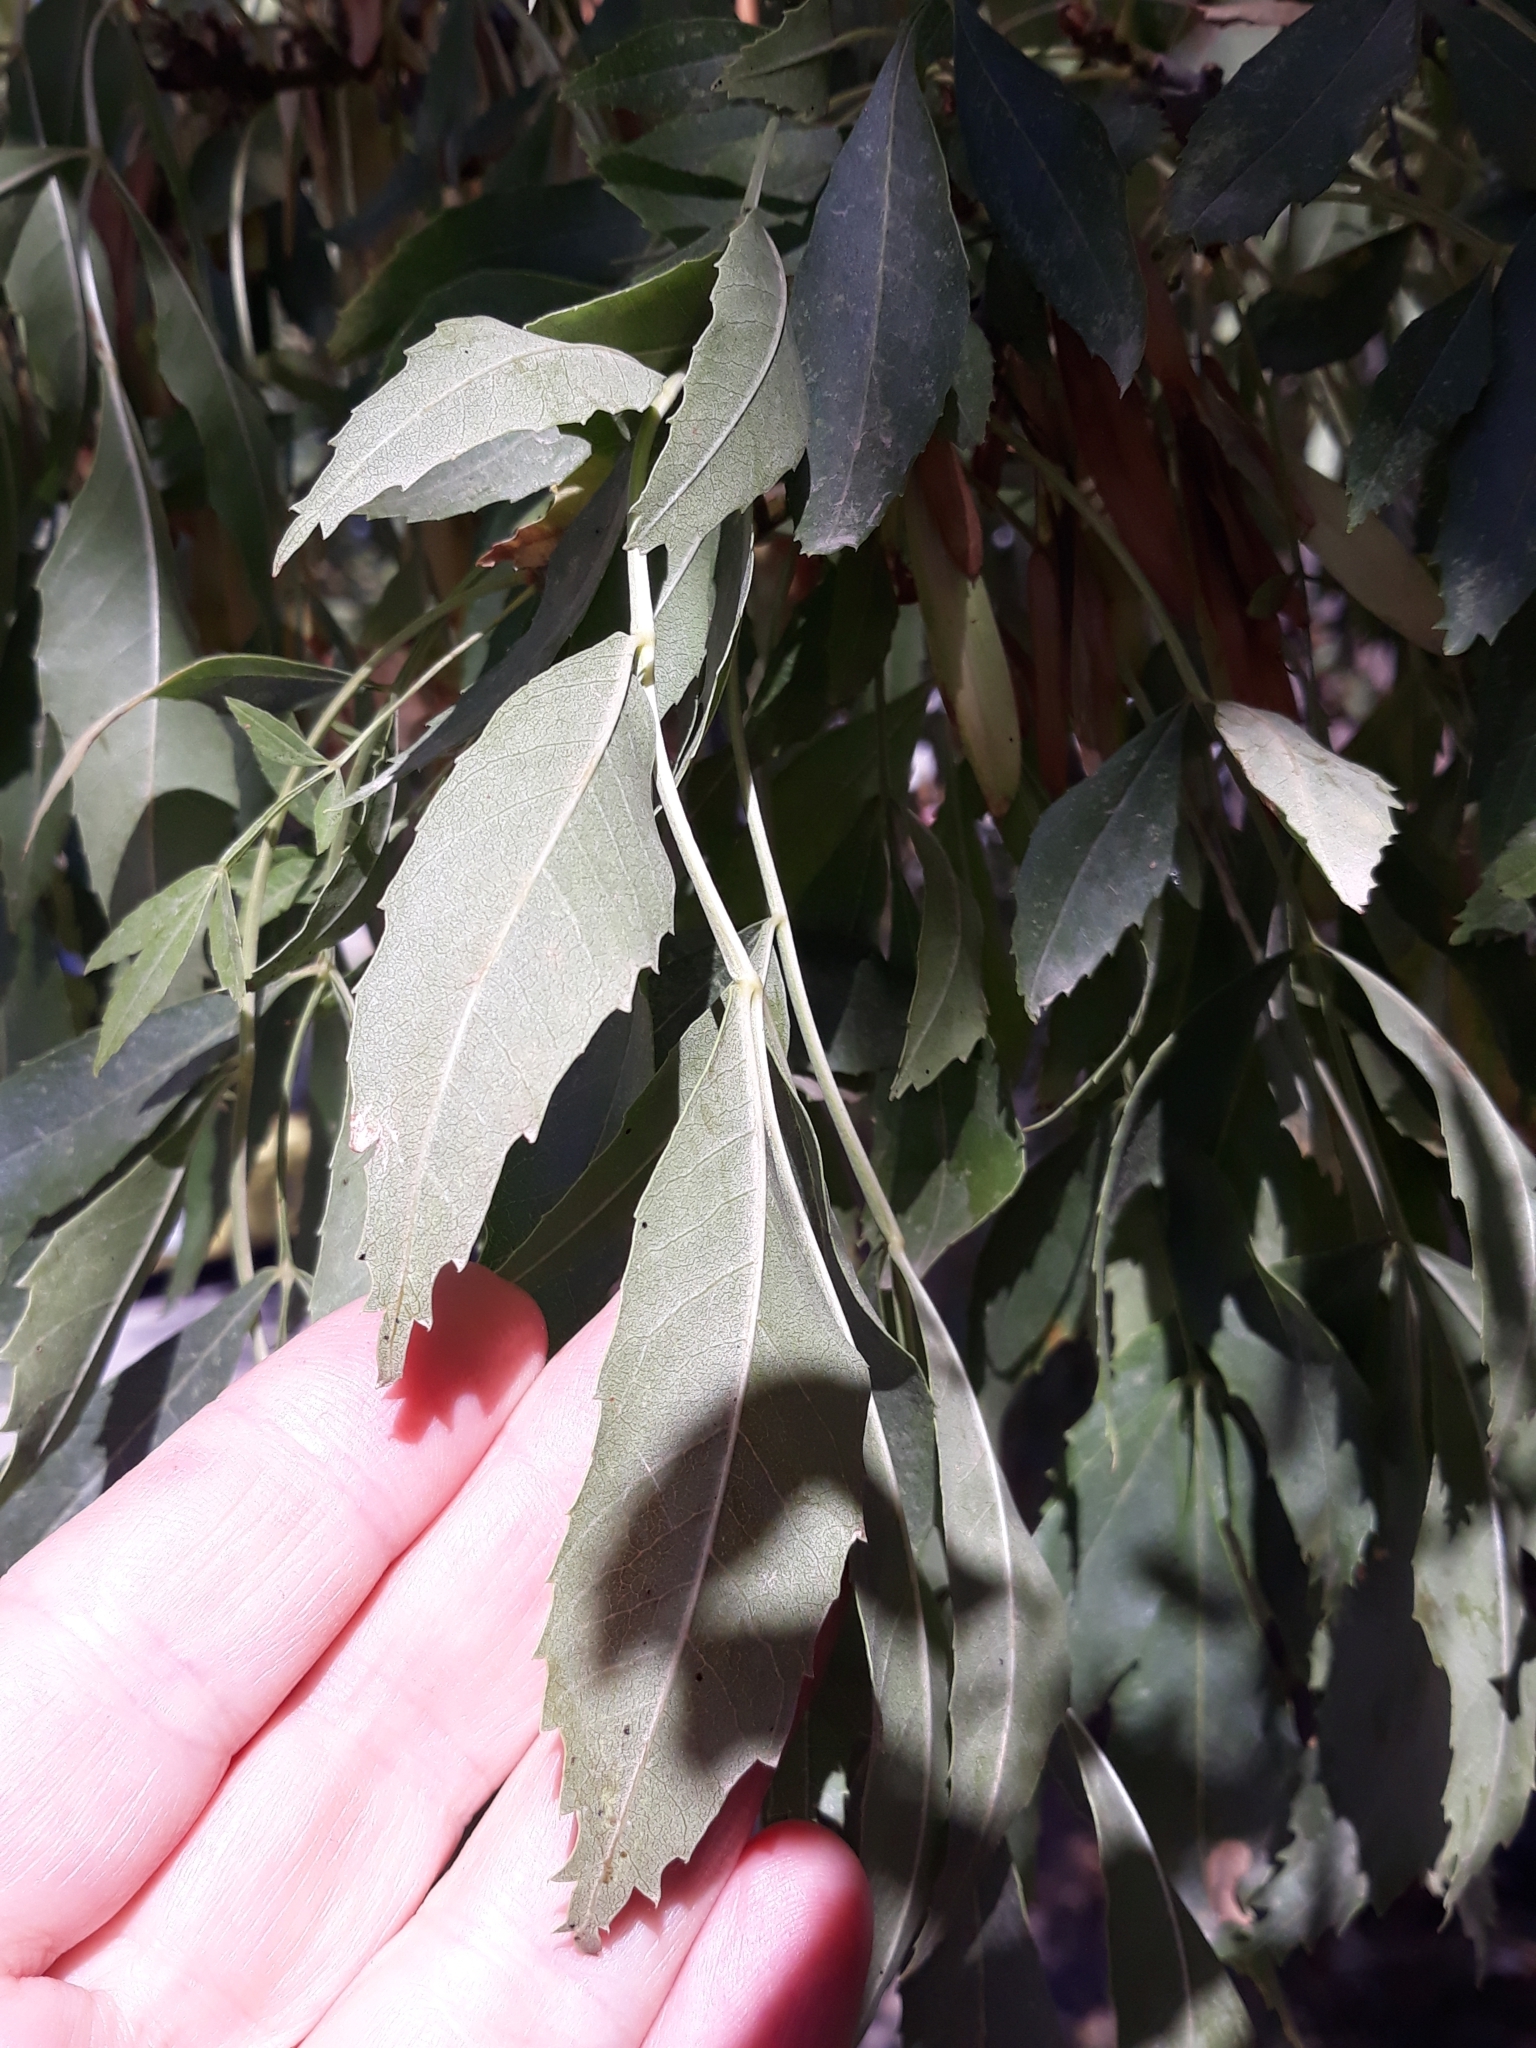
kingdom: Plantae
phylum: Tracheophyta
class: Magnoliopsida
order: Lamiales
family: Oleaceae
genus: Fraxinus
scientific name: Fraxinus angustifolia
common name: Narrow-leafed ash
